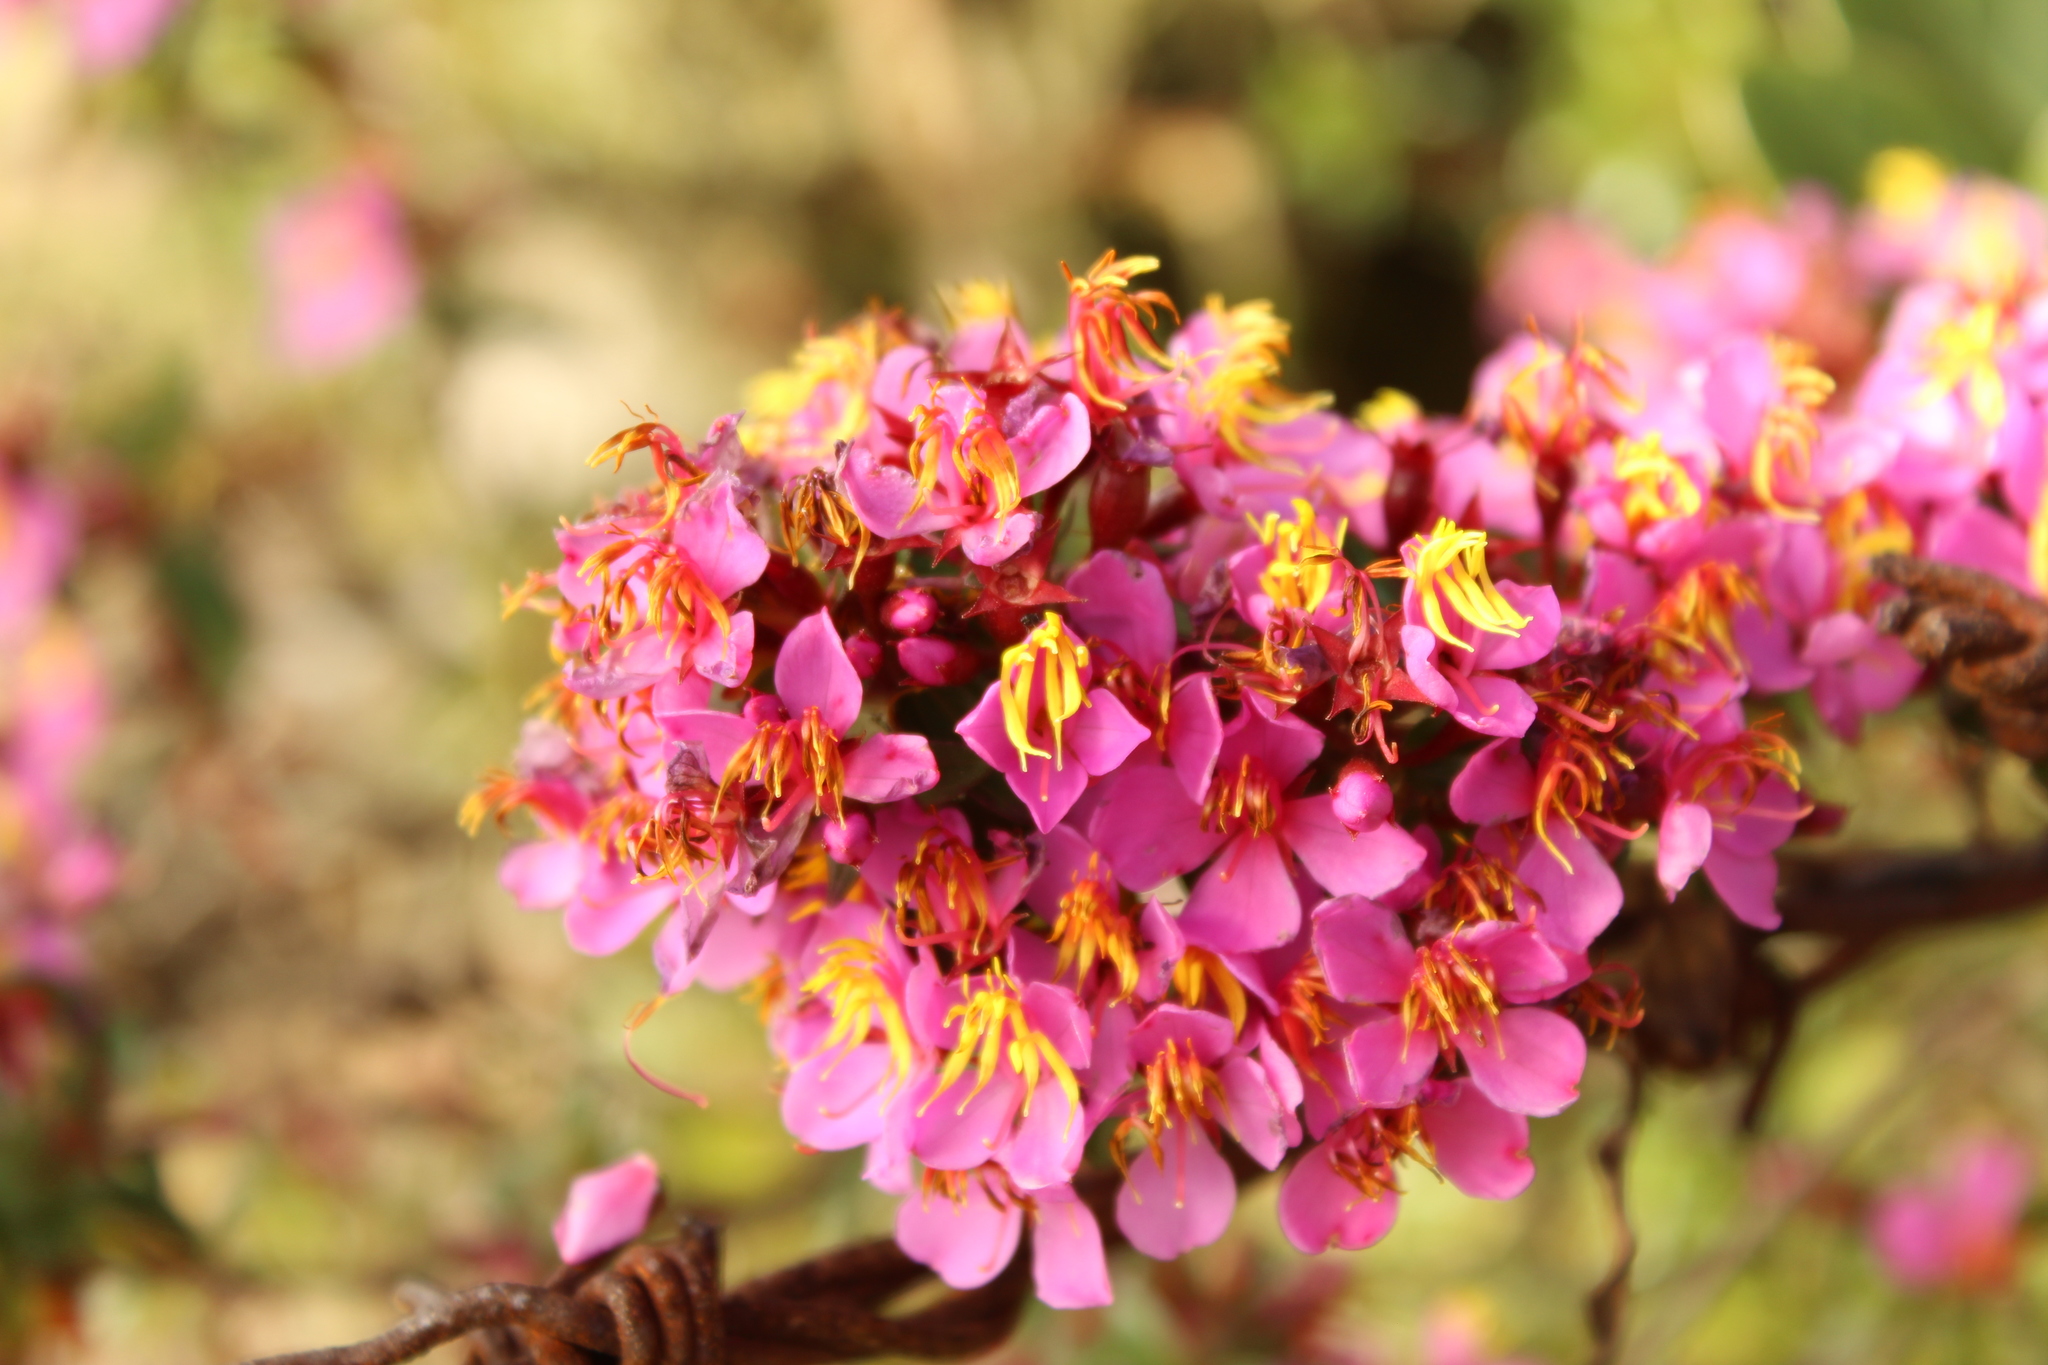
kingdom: Plantae
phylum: Tracheophyta
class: Magnoliopsida
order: Myrtales
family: Melastomataceae
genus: Monochaetum
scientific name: Monochaetum myrtoideum
